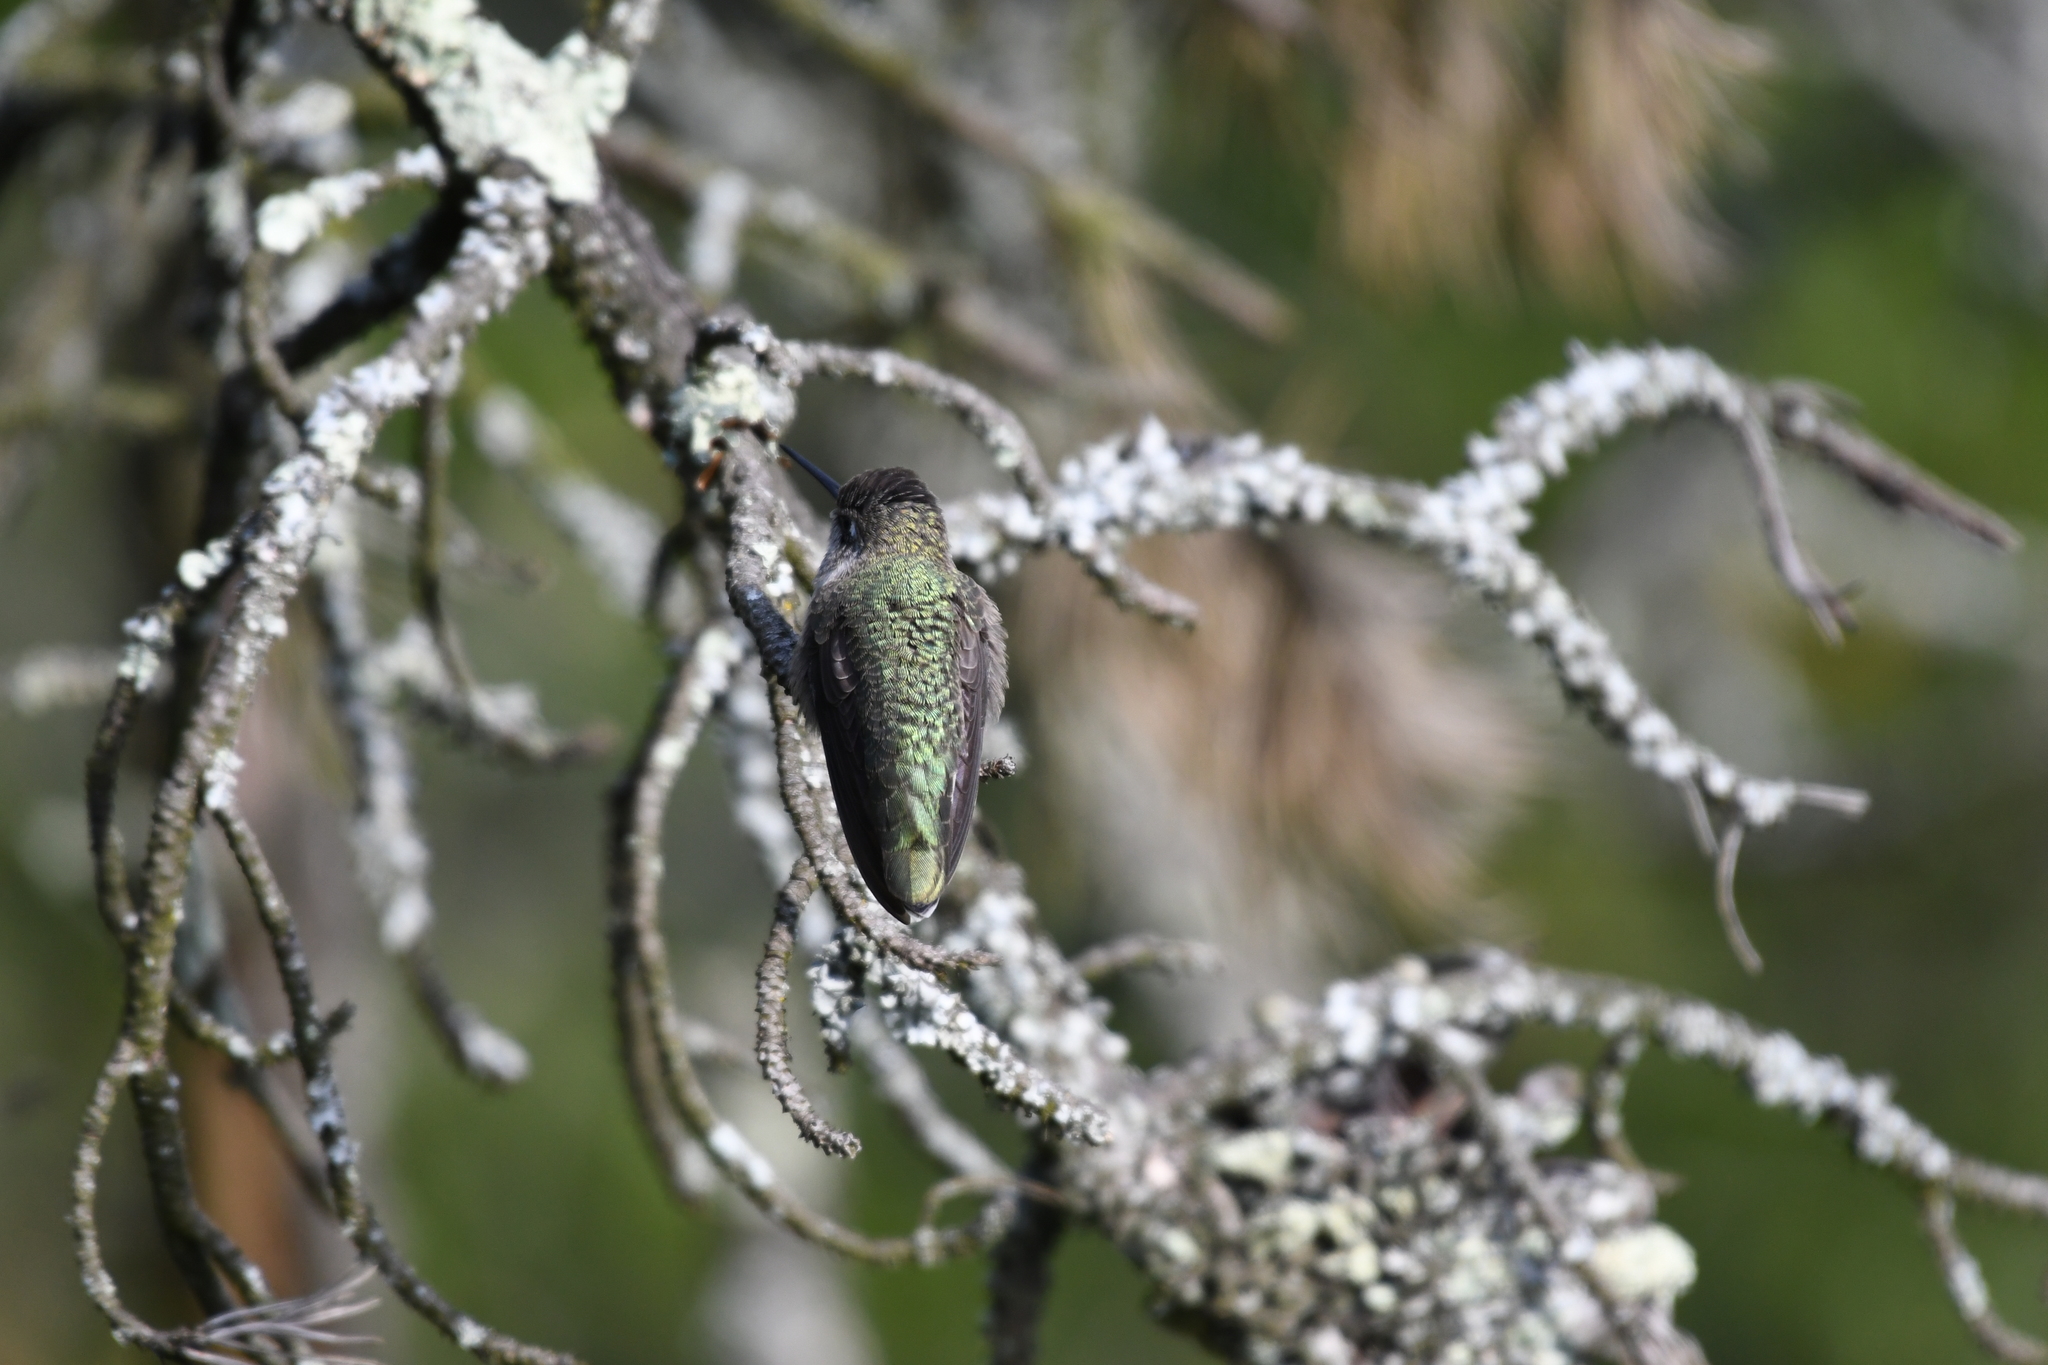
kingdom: Animalia
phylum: Chordata
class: Aves
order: Apodiformes
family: Trochilidae
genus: Calypte
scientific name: Calypte anna
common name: Anna's hummingbird
